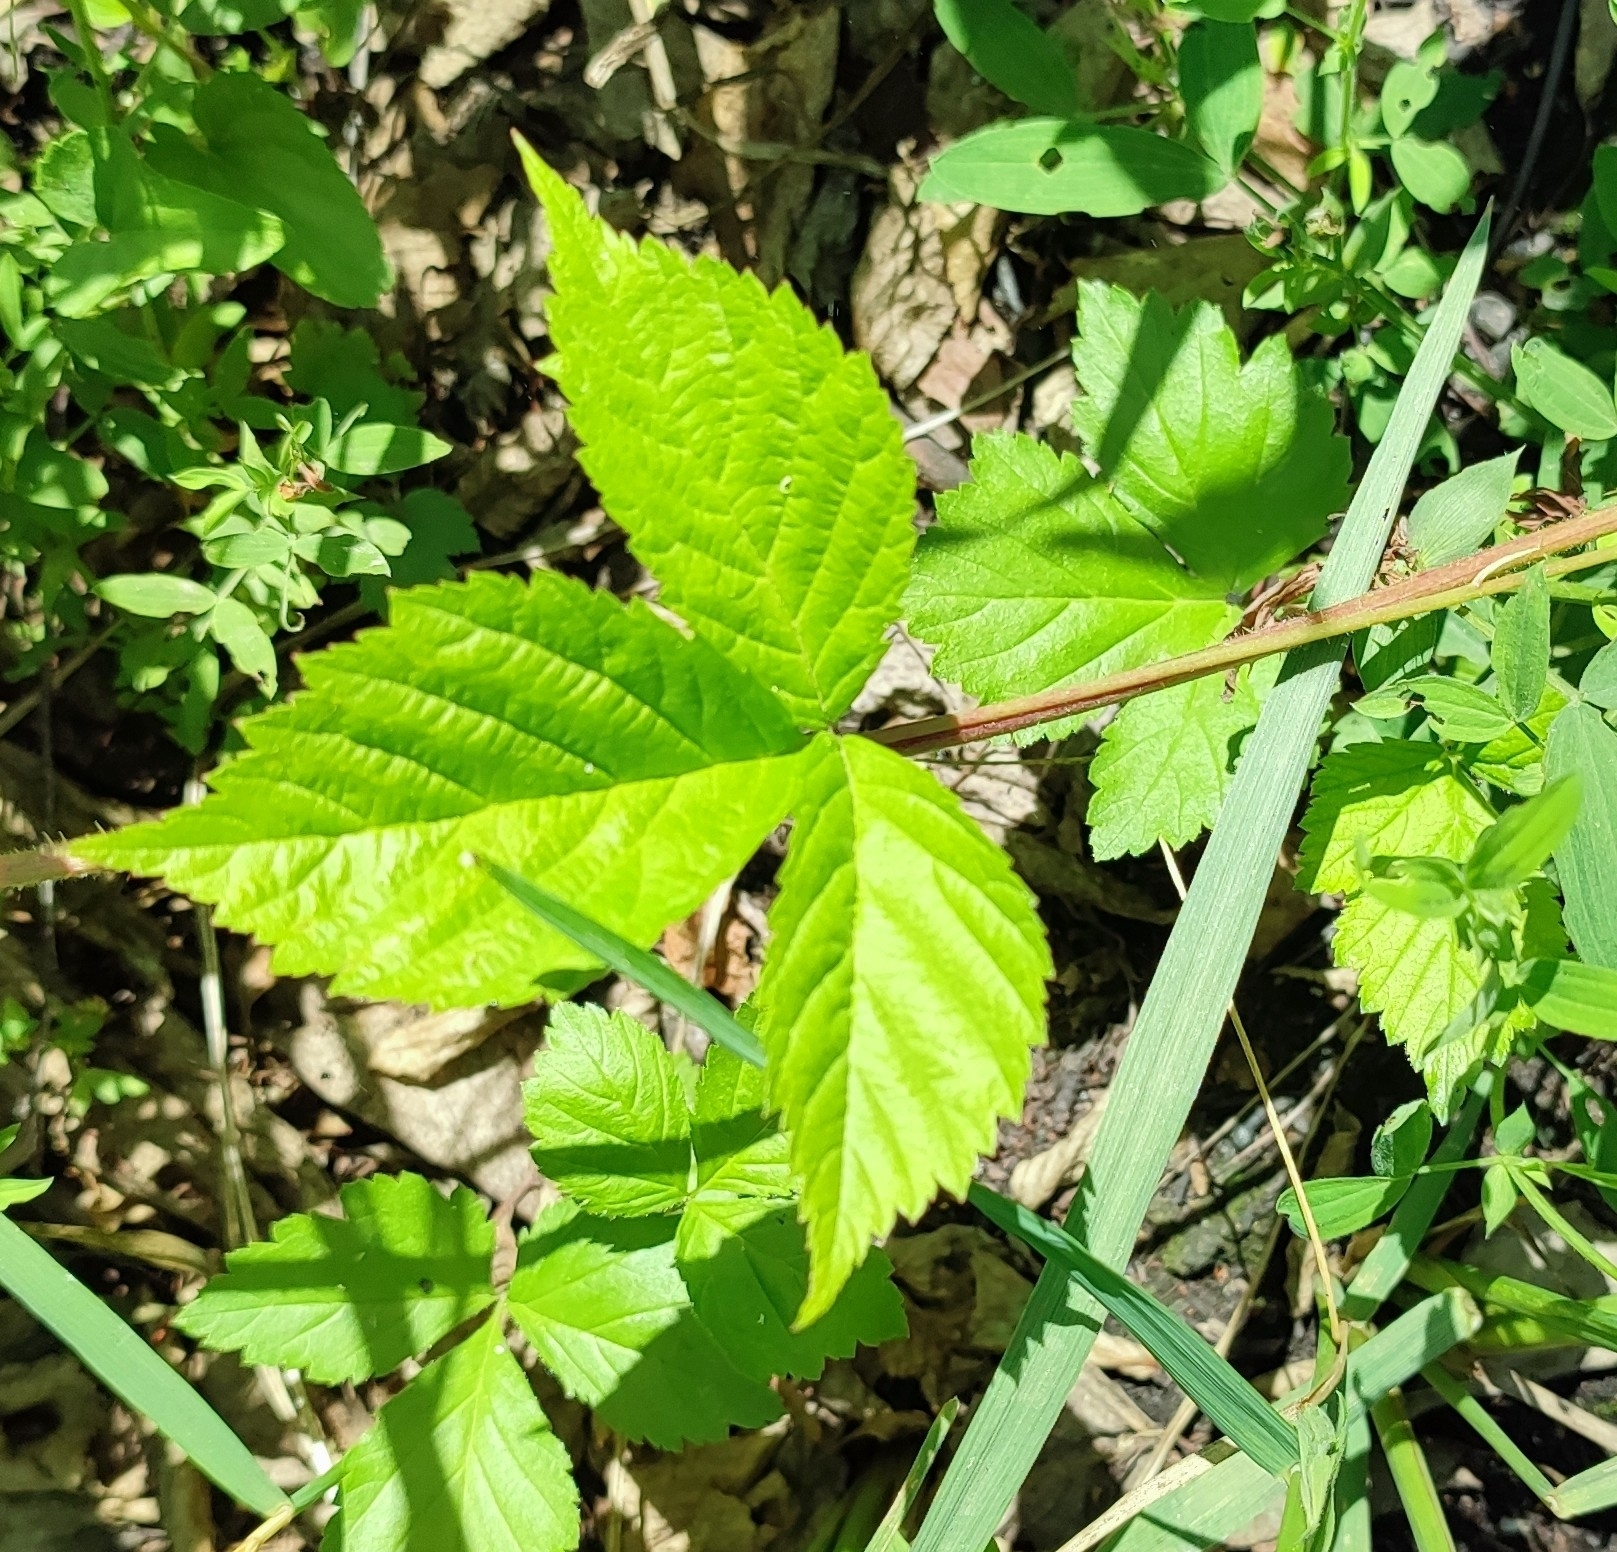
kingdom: Plantae
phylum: Tracheophyta
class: Magnoliopsida
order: Rosales
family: Rosaceae
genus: Rubus
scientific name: Rubus saxatilis
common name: Stone bramble
